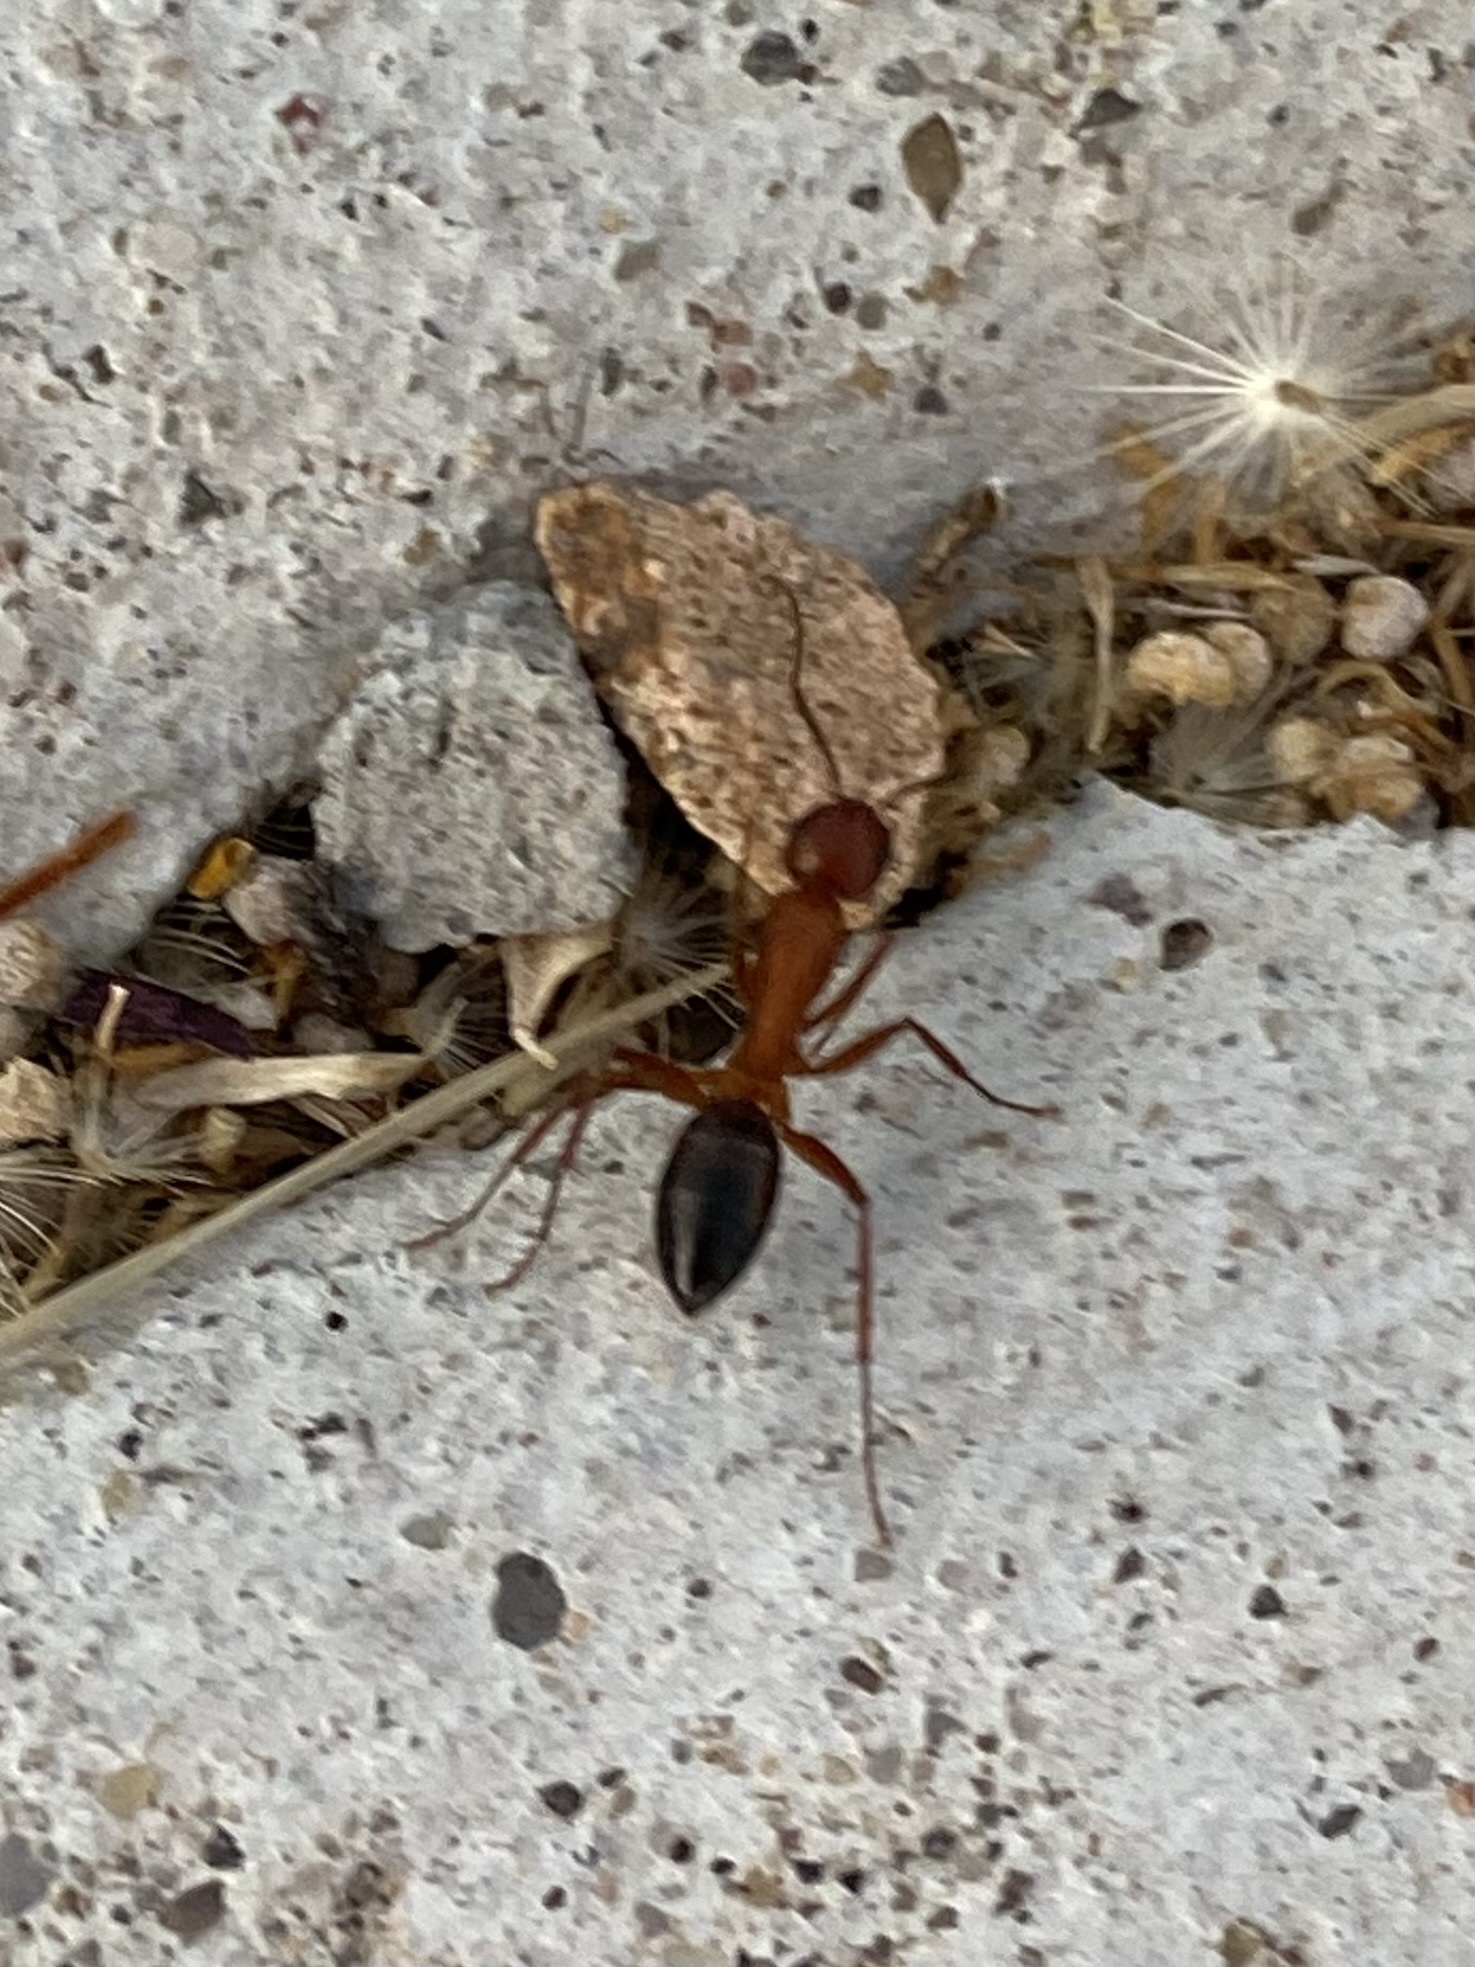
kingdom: Animalia
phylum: Arthropoda
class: Insecta
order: Hymenoptera
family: Formicidae
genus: Camponotus
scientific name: Camponotus
